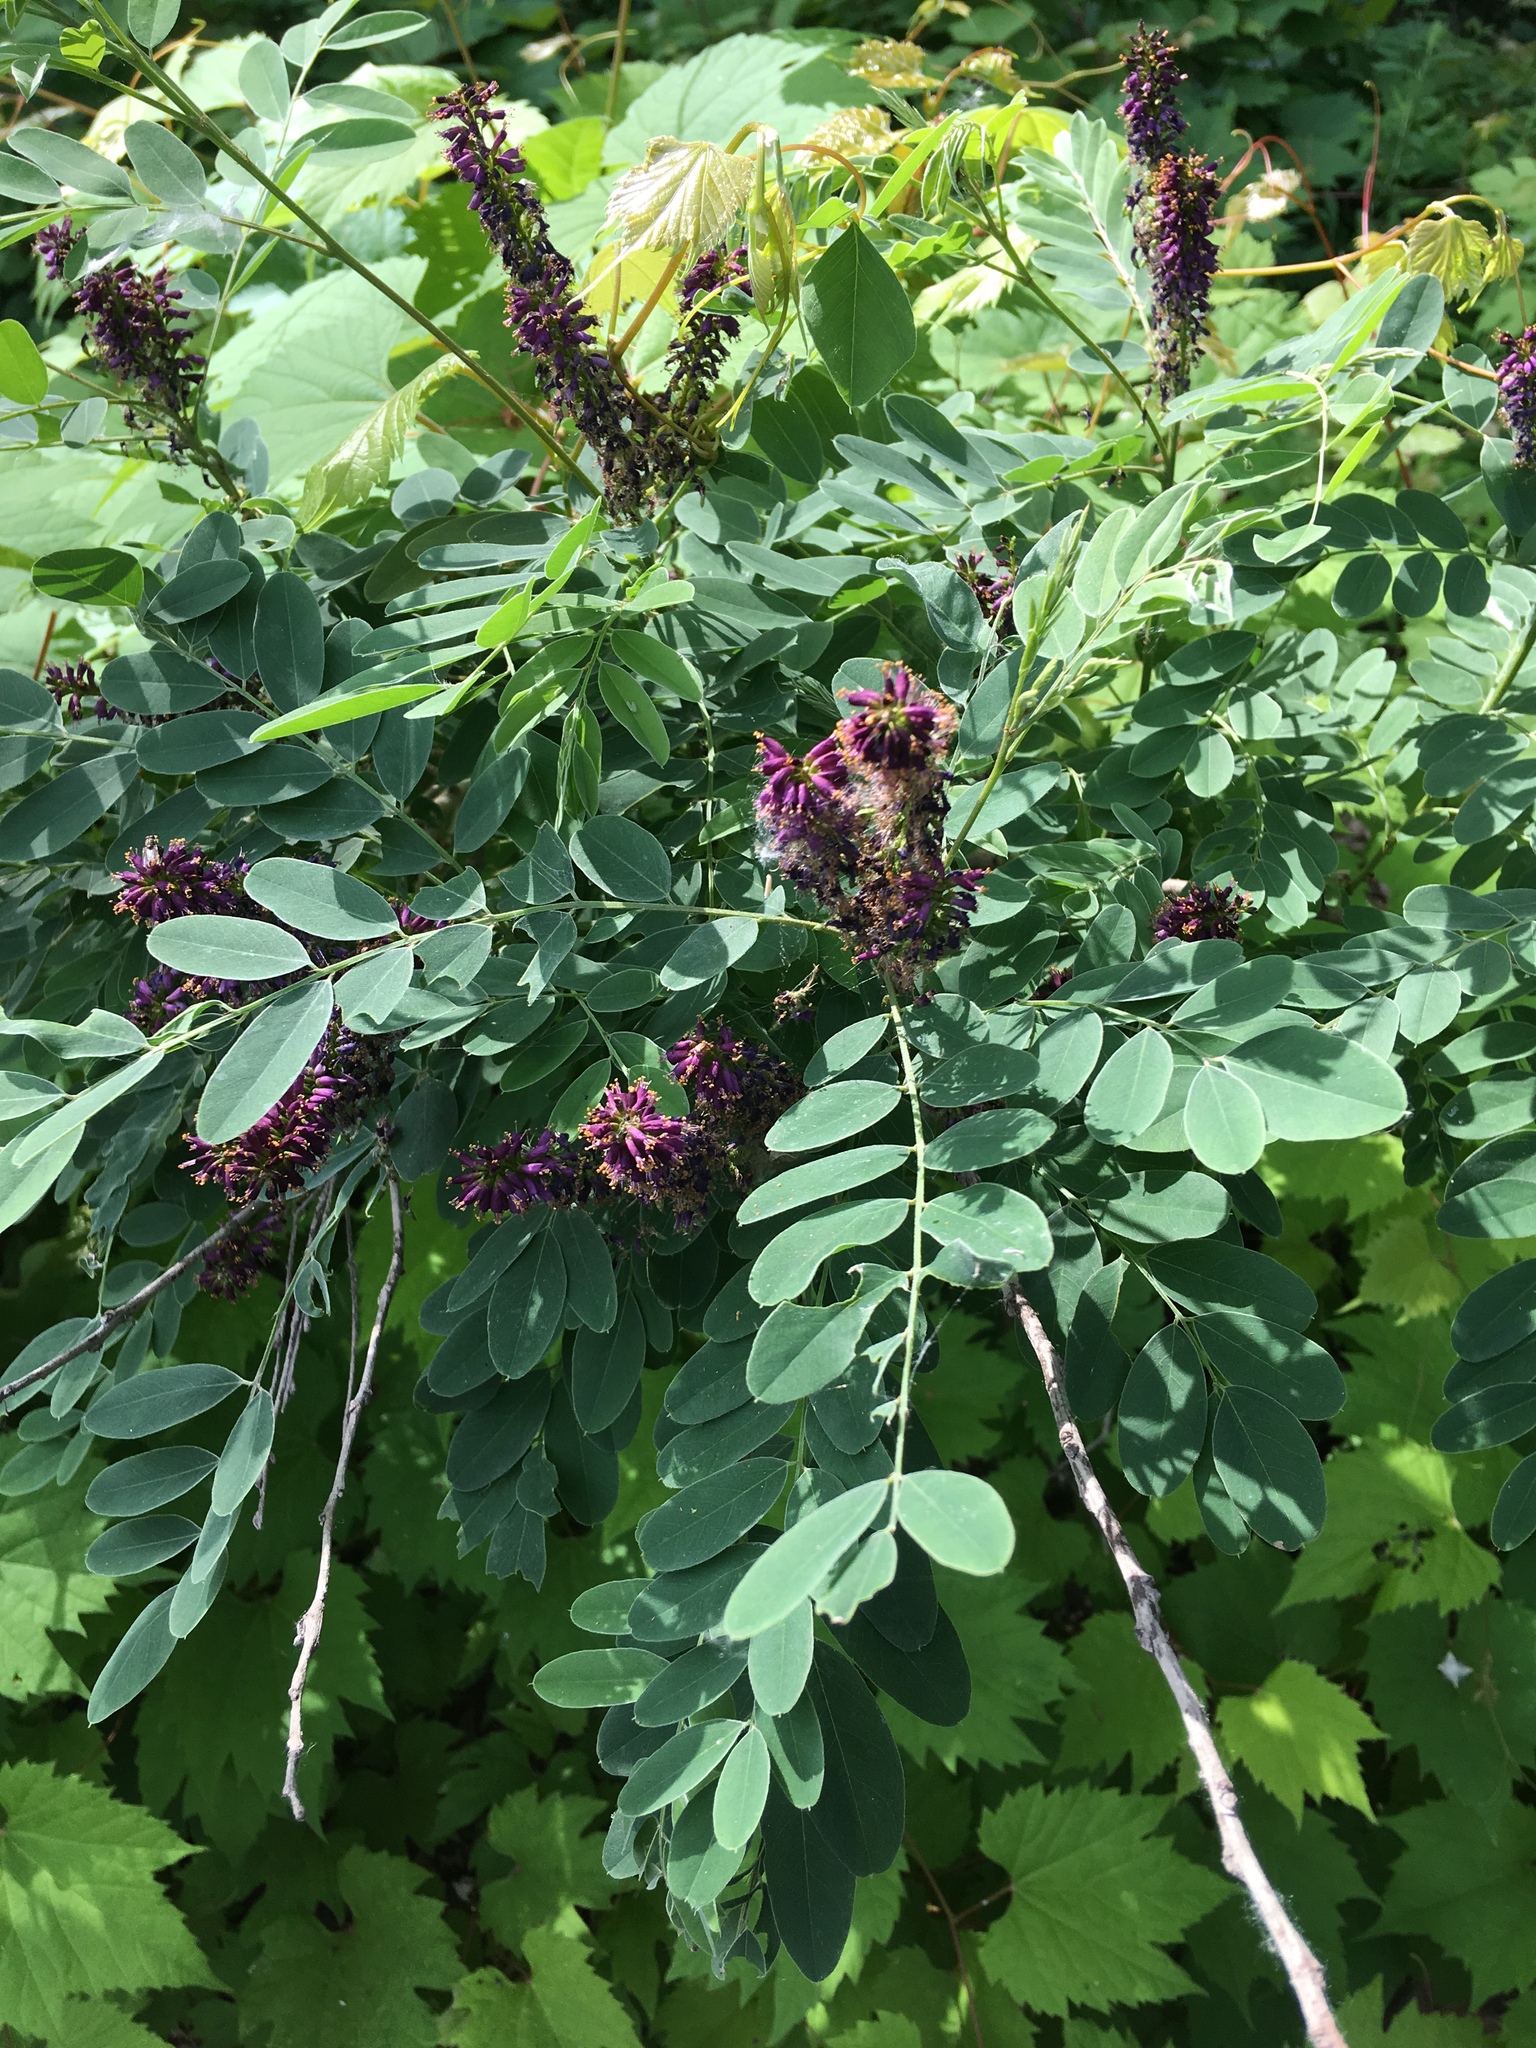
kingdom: Plantae
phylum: Tracheophyta
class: Magnoliopsida
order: Fabales
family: Fabaceae
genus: Amorpha
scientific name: Amorpha fruticosa
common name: False indigo
